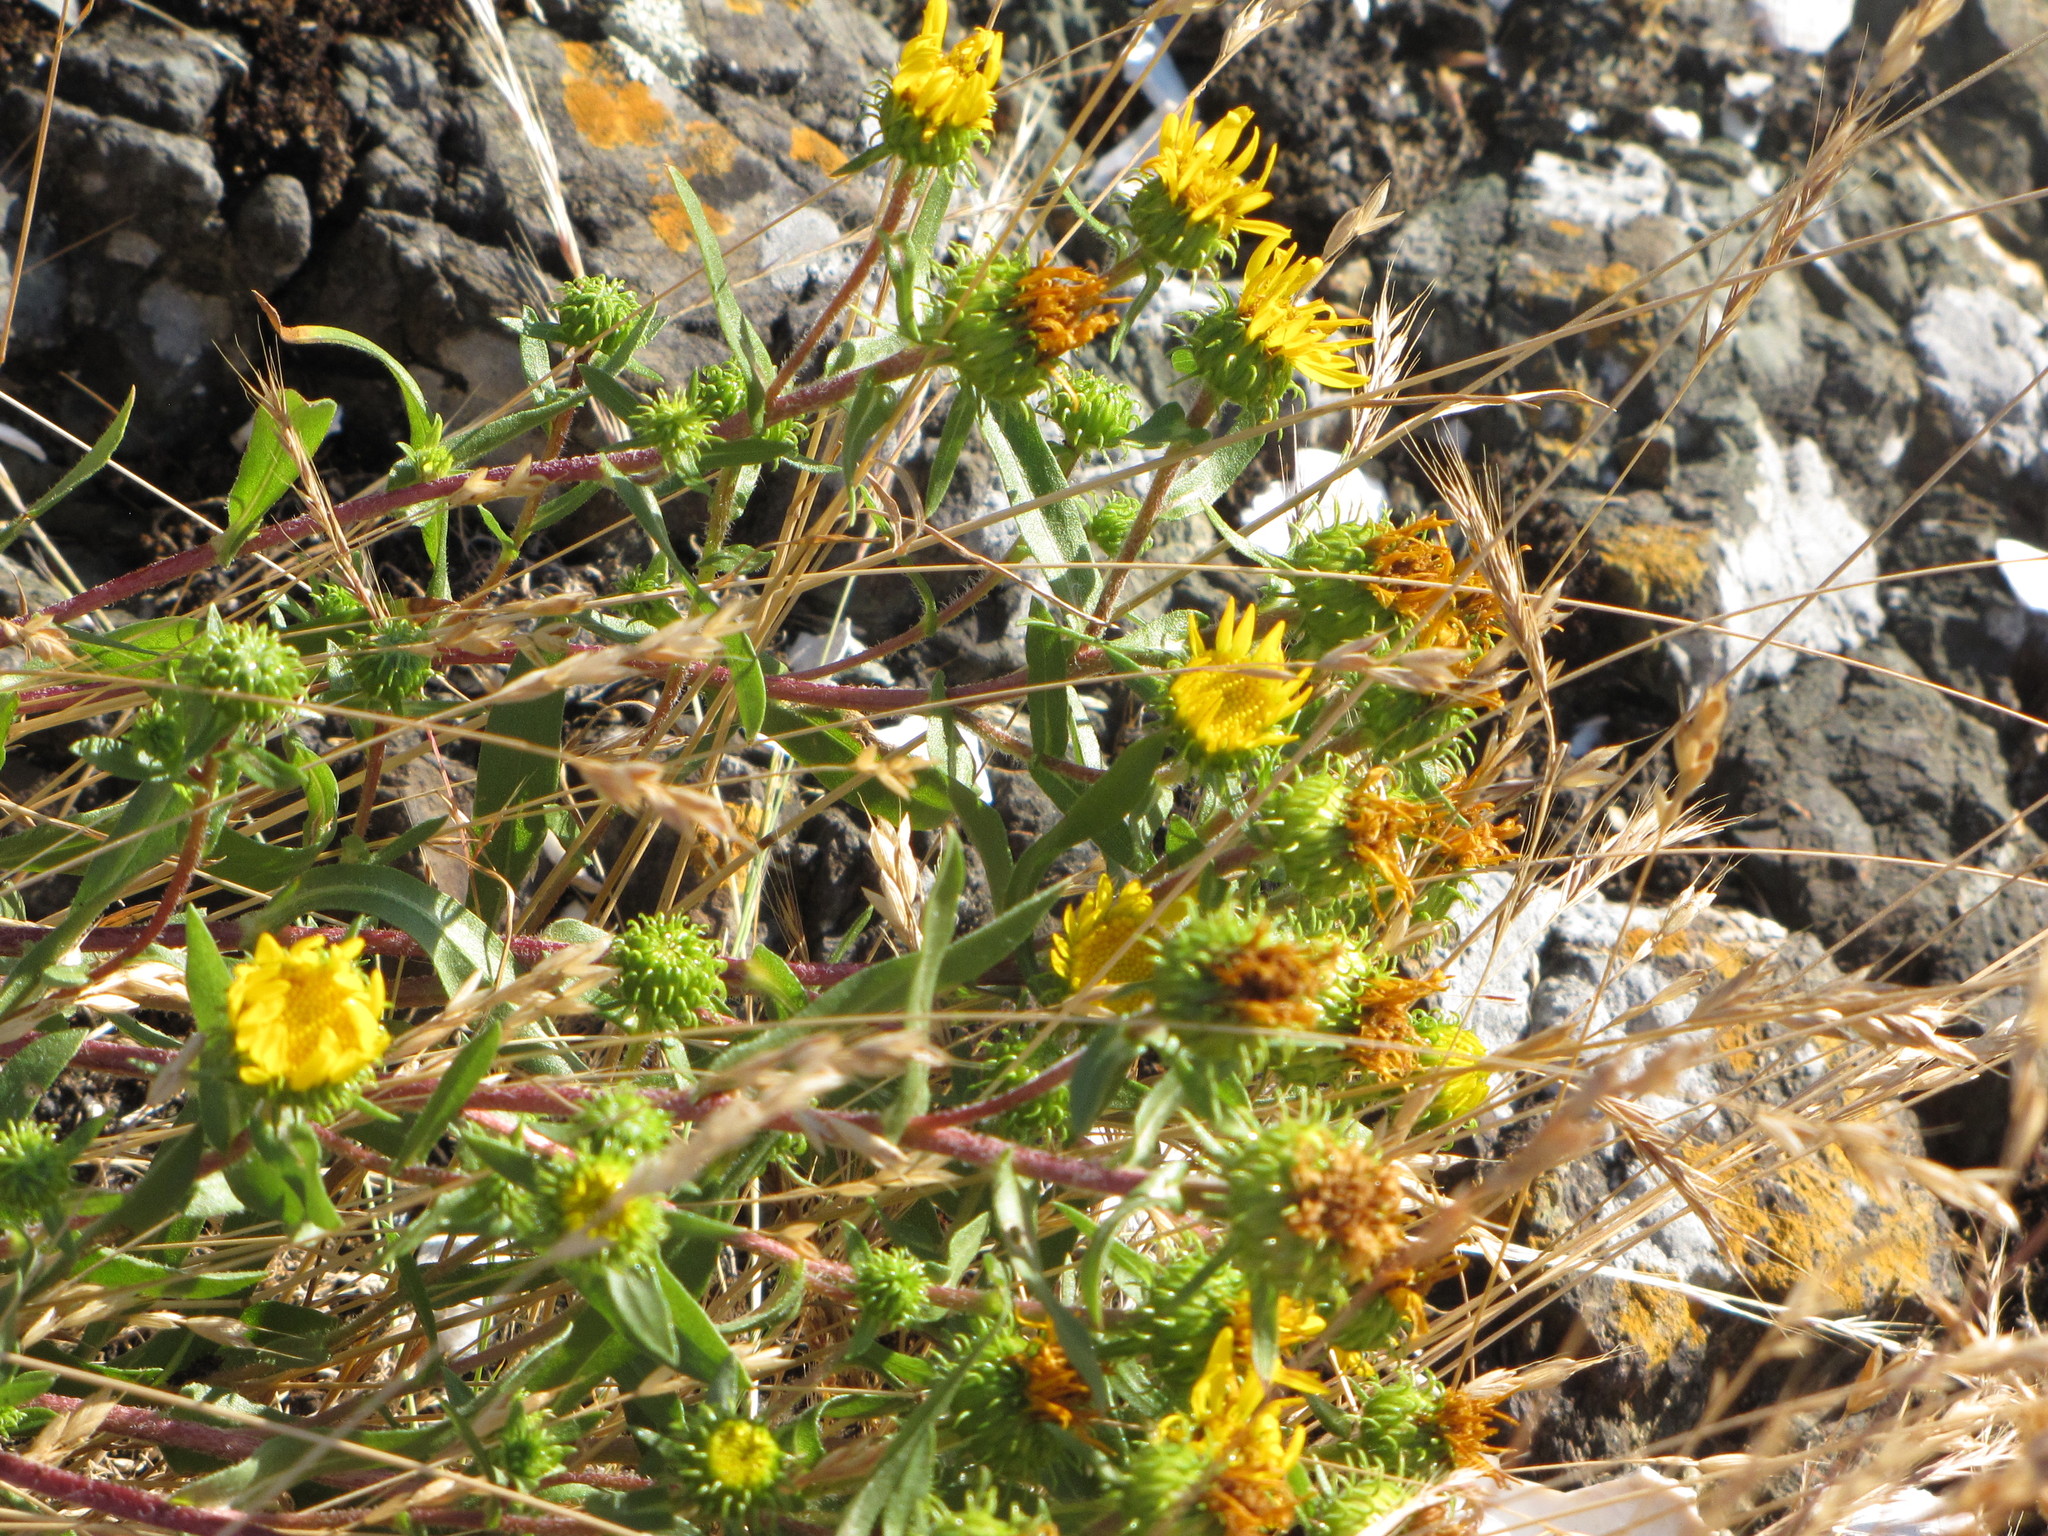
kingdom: Plantae
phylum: Tracheophyta
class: Magnoliopsida
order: Asterales
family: Asteraceae
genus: Grindelia
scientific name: Grindelia hirsutula
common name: Hairy gumweed
